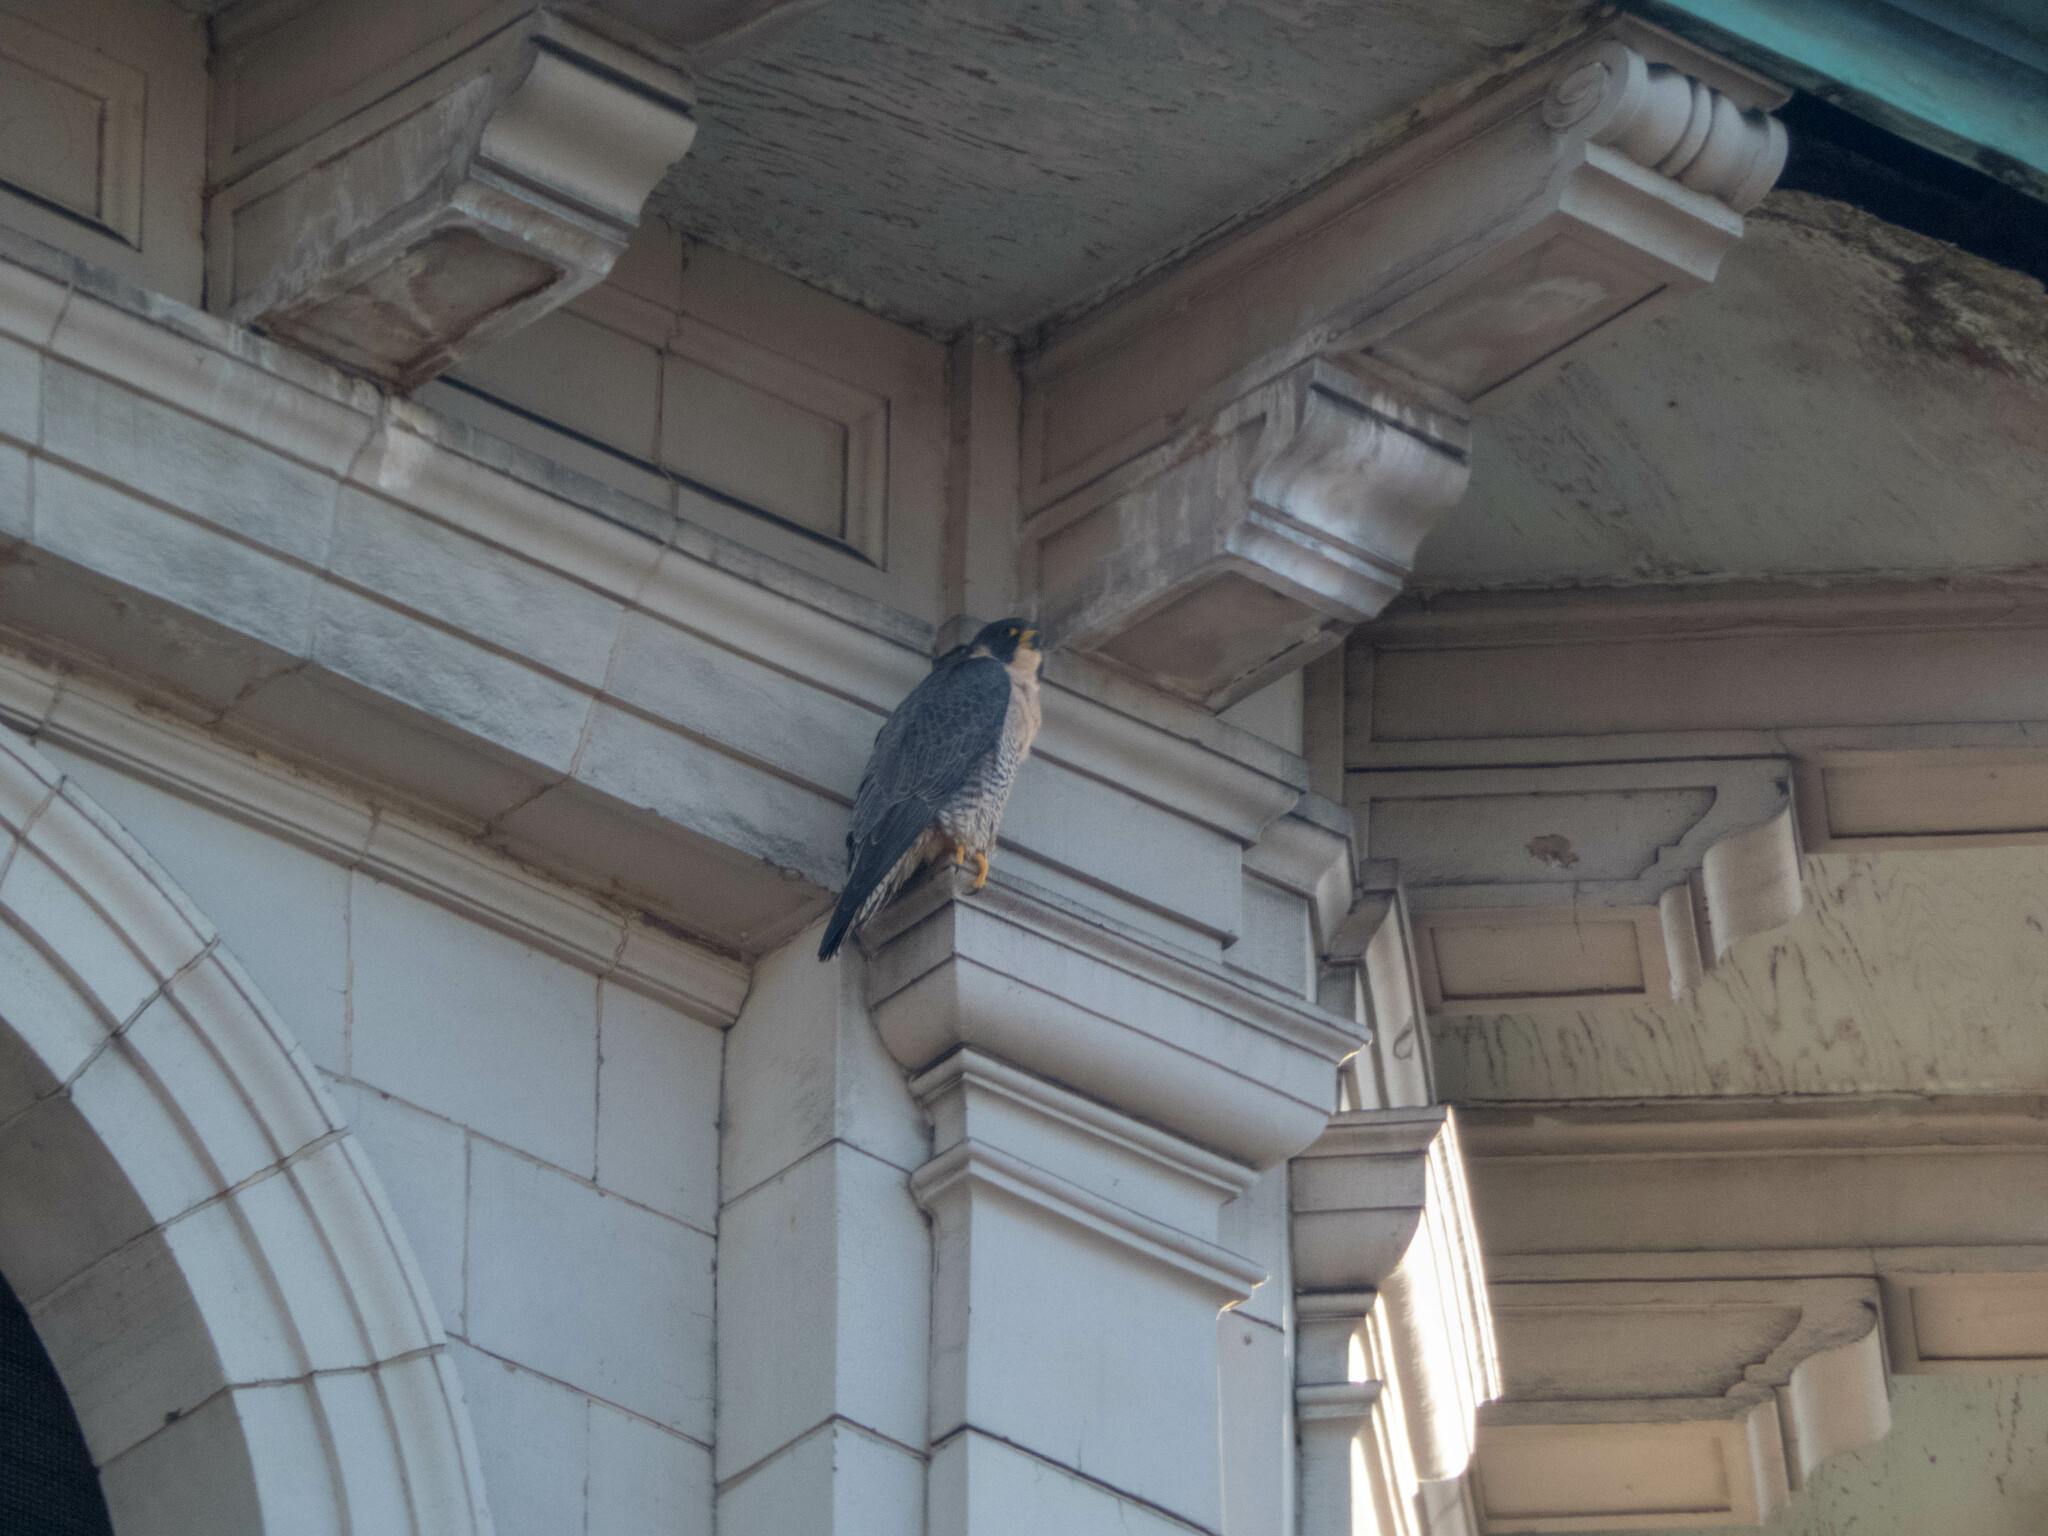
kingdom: Animalia
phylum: Chordata
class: Aves
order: Falconiformes
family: Falconidae
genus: Falco
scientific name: Falco peregrinus
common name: Peregrine falcon
